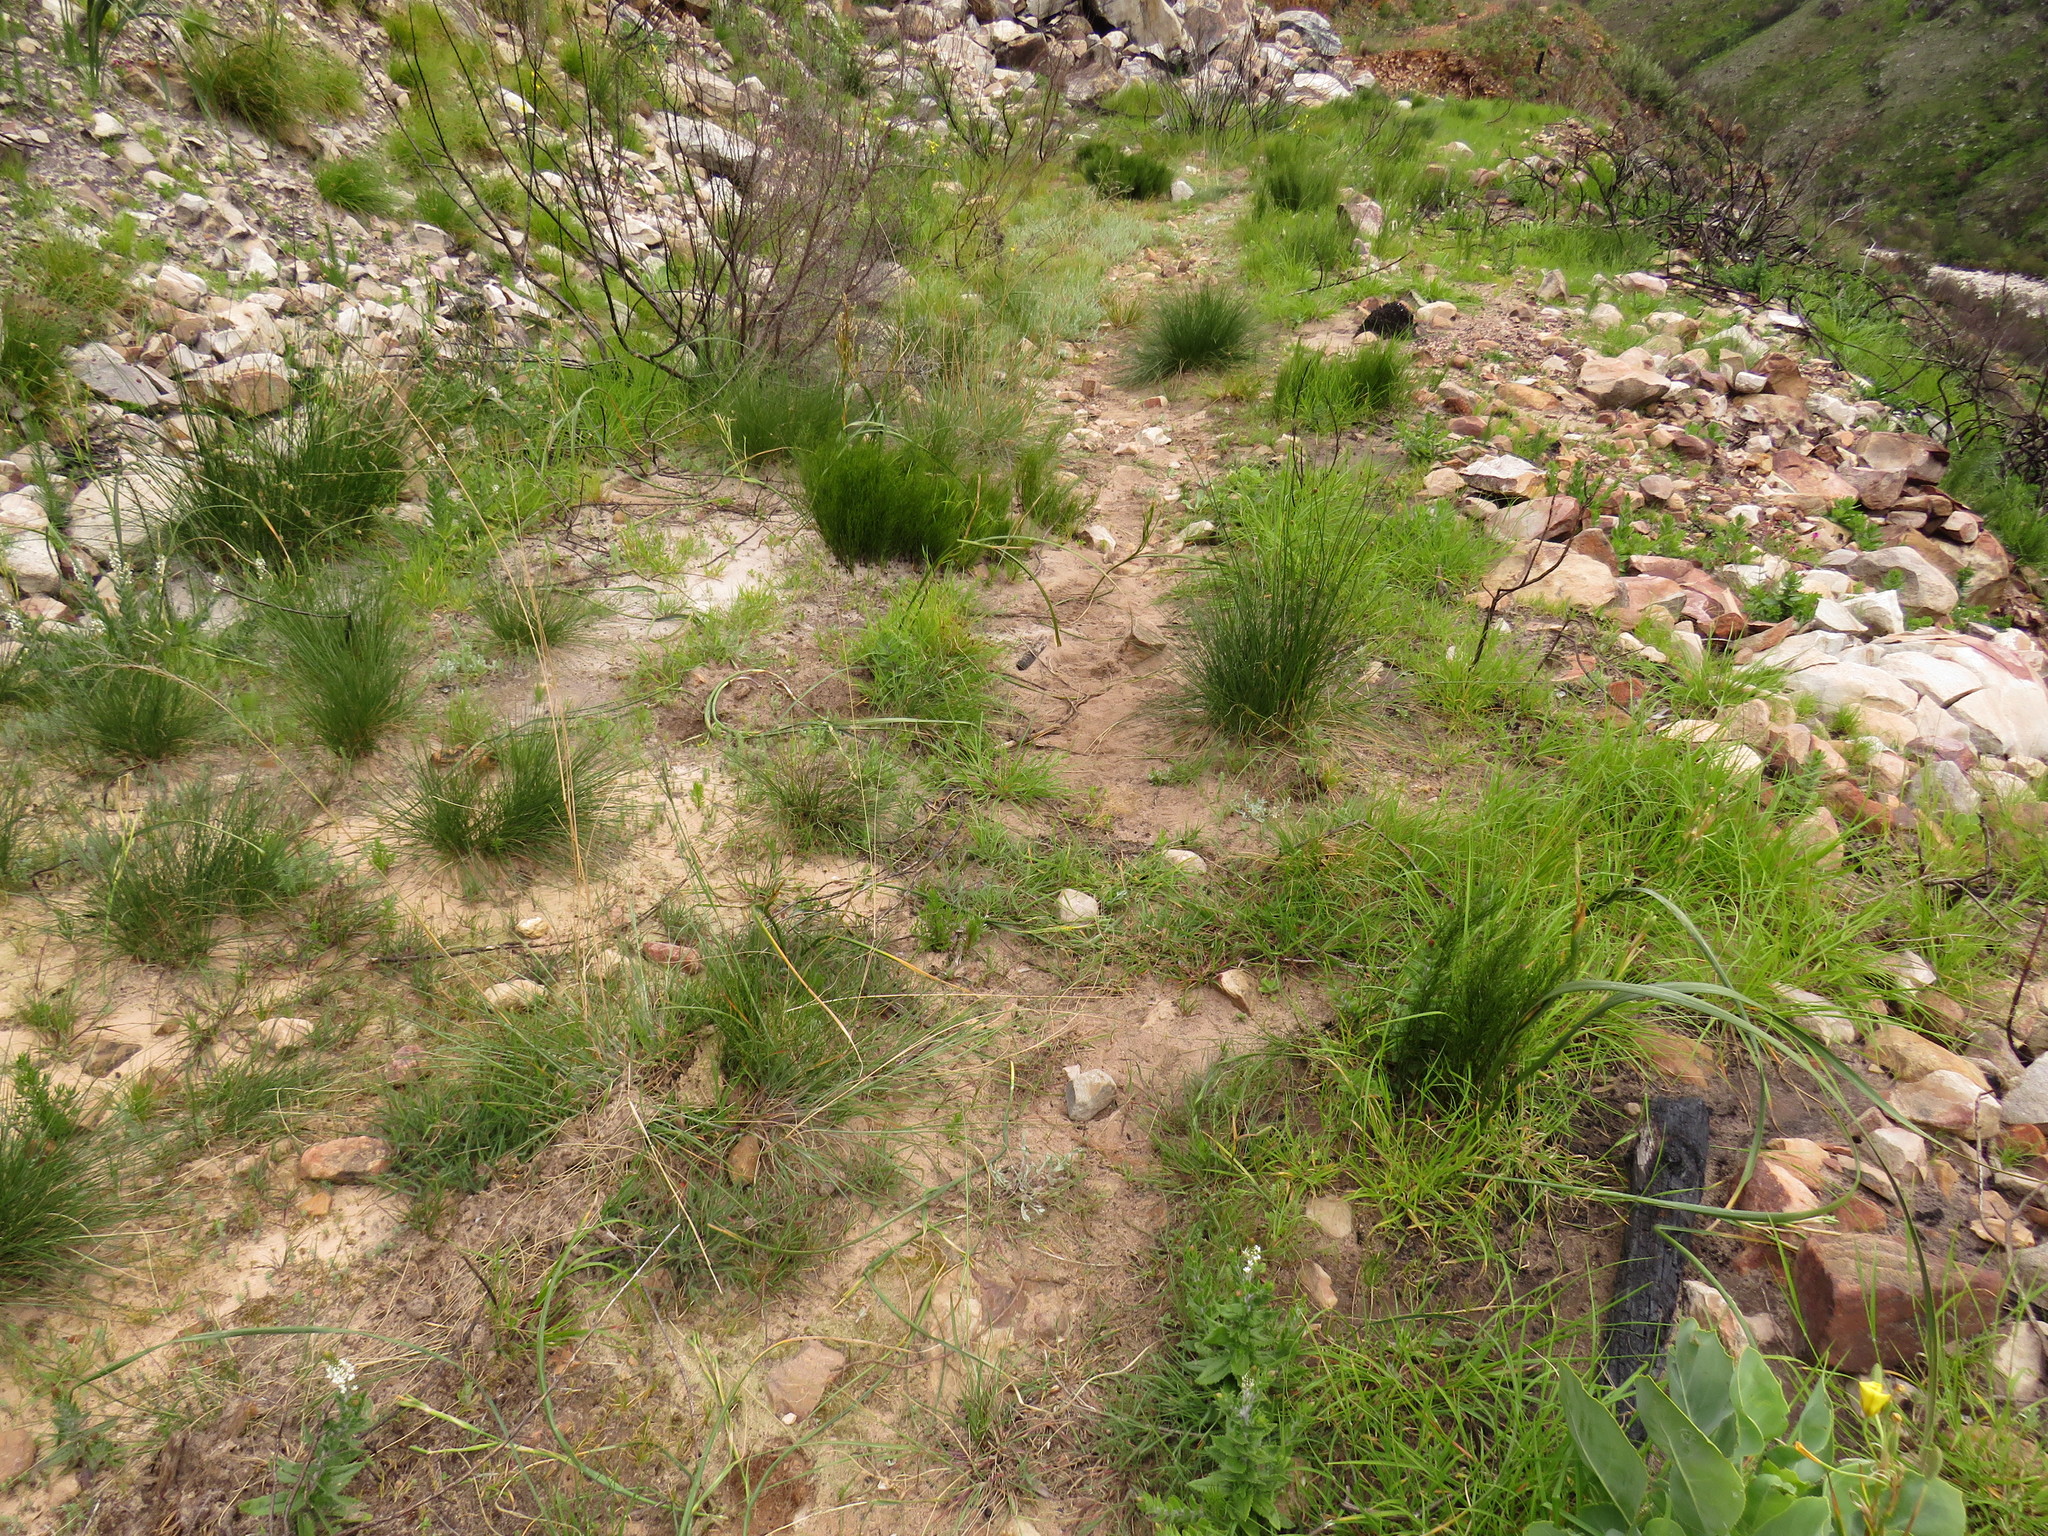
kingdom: Animalia
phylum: Chordata
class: Mammalia
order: Primates
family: Cercopithecidae
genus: Papio
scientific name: Papio ursinus
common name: Chacma baboon
